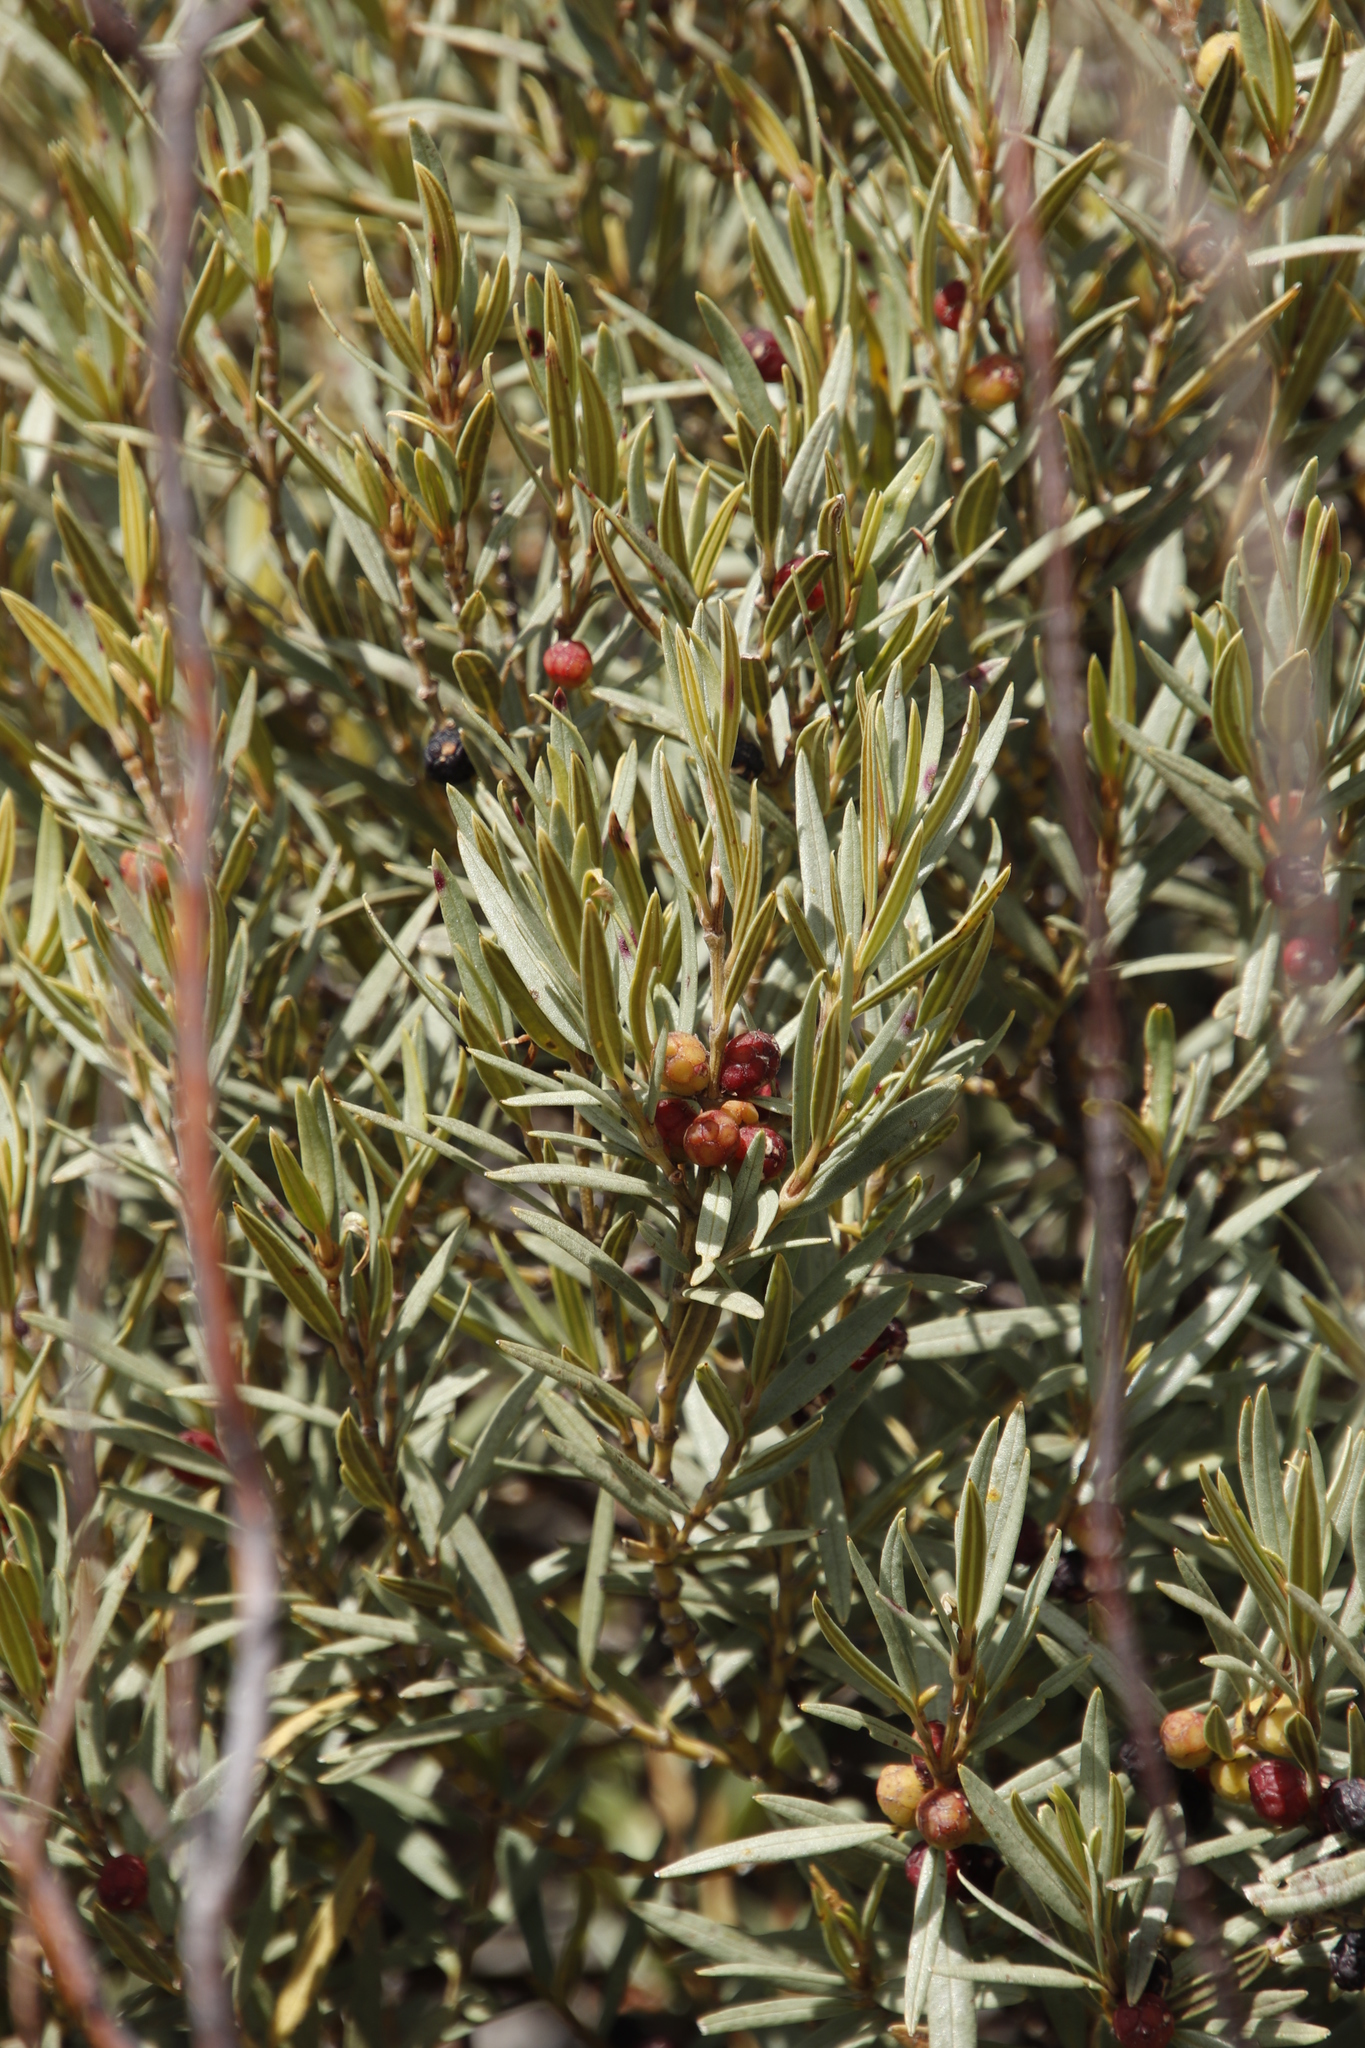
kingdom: Plantae
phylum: Tracheophyta
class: Magnoliopsida
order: Cornales
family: Grubbiaceae
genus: Grubbia
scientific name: Grubbia tomentosa
